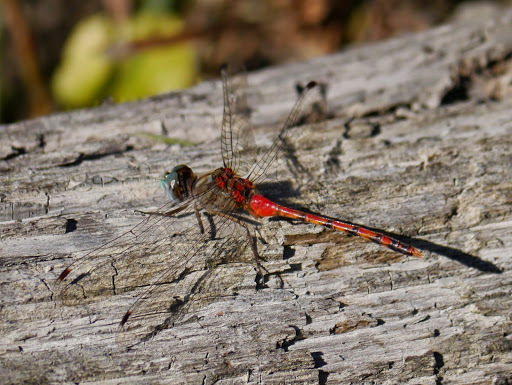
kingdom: Animalia
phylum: Arthropoda
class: Insecta
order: Odonata
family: Libellulidae
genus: Sympetrum
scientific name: Sympetrum ambiguum
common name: Blue-faced meadowhawk
